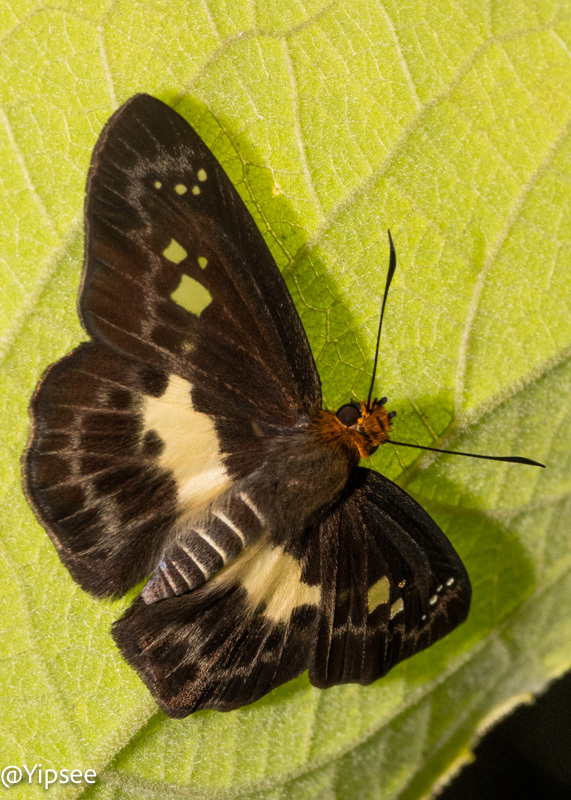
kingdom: Animalia
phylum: Arthropoda
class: Insecta
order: Lepidoptera
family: Hesperiidae
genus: Daimio
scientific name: Daimio Gerosis phisara
